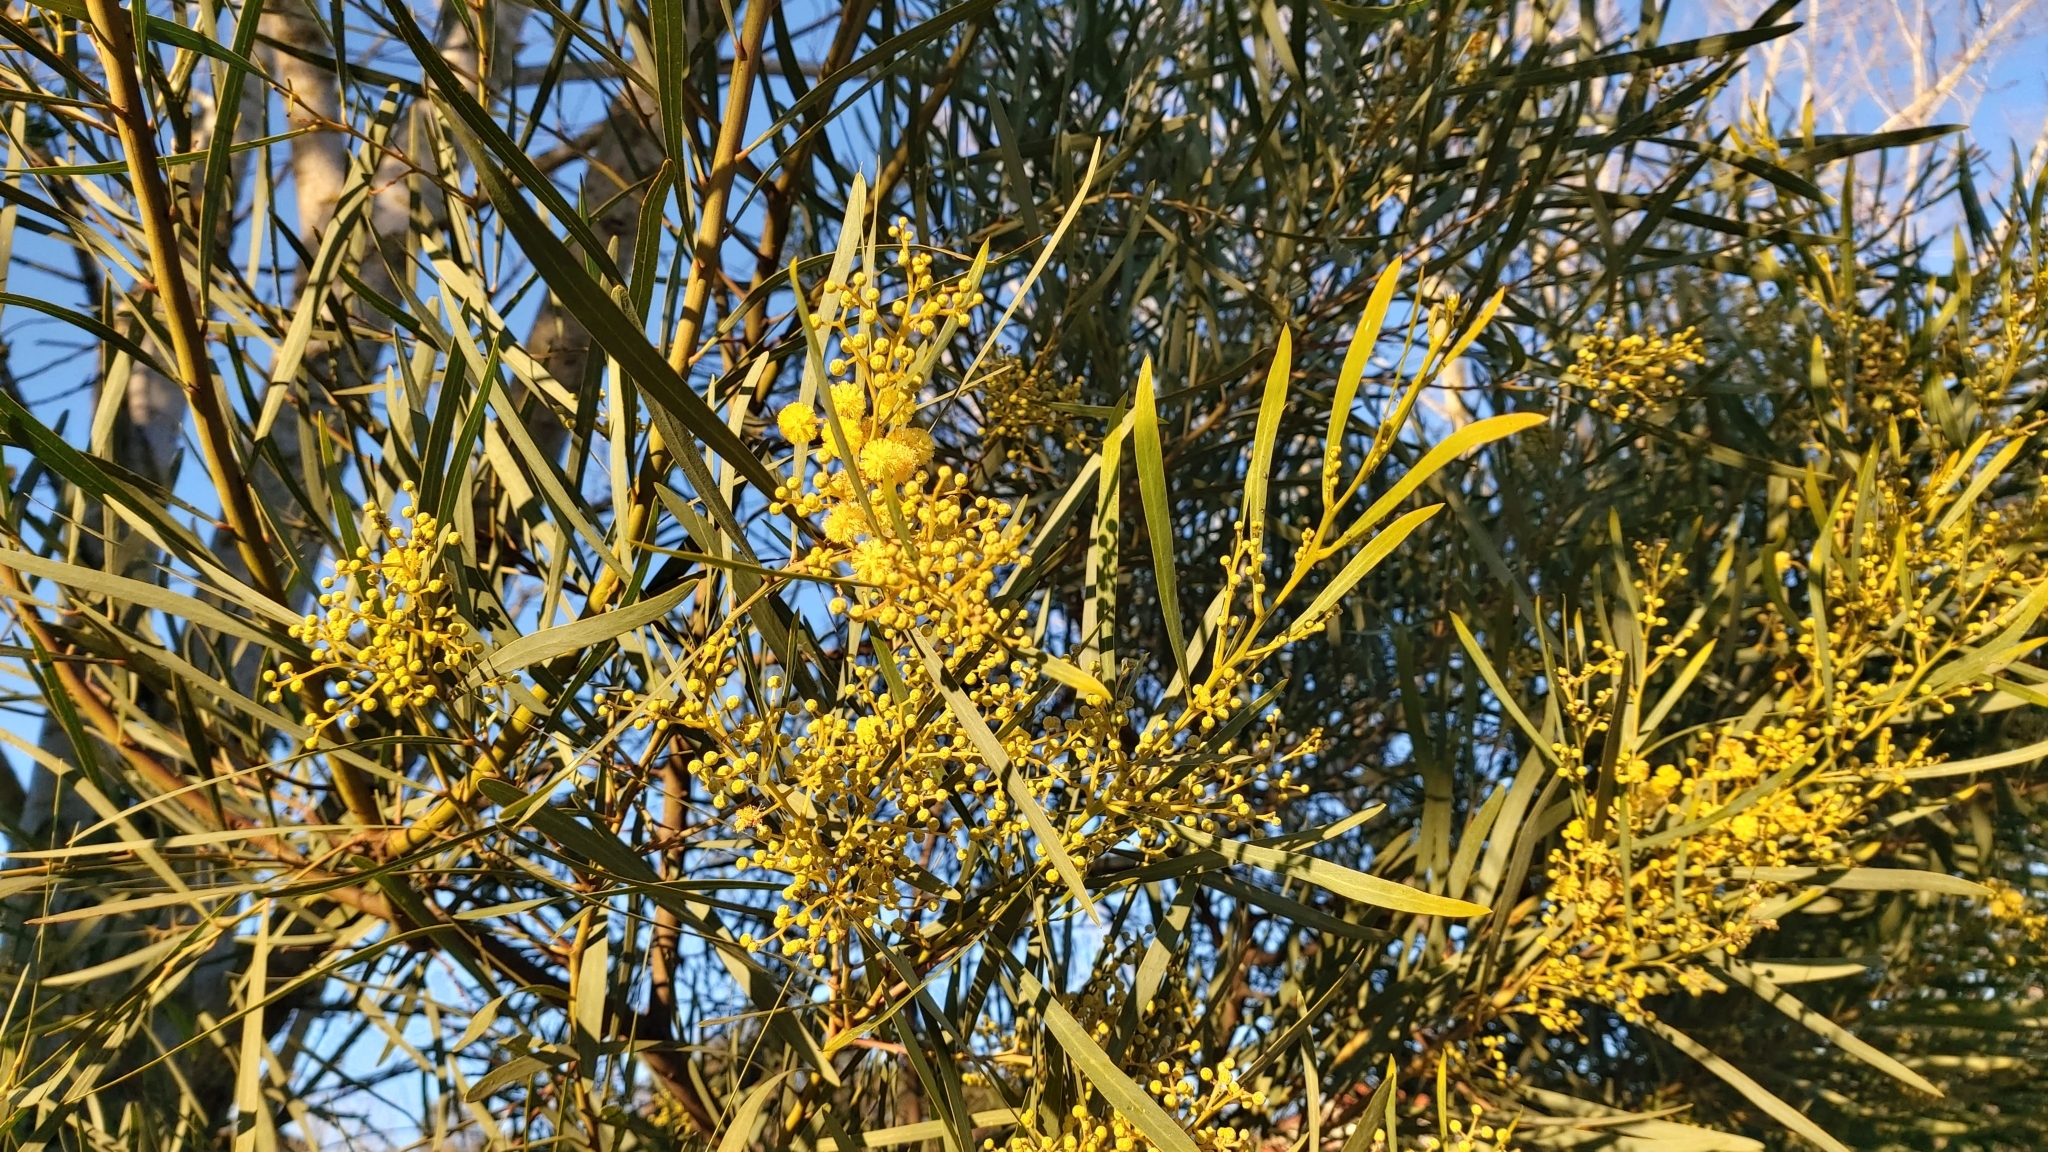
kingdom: Plantae
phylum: Tracheophyta
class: Magnoliopsida
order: Fabales
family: Fabaceae
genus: Acacia
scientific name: Acacia provincialis
